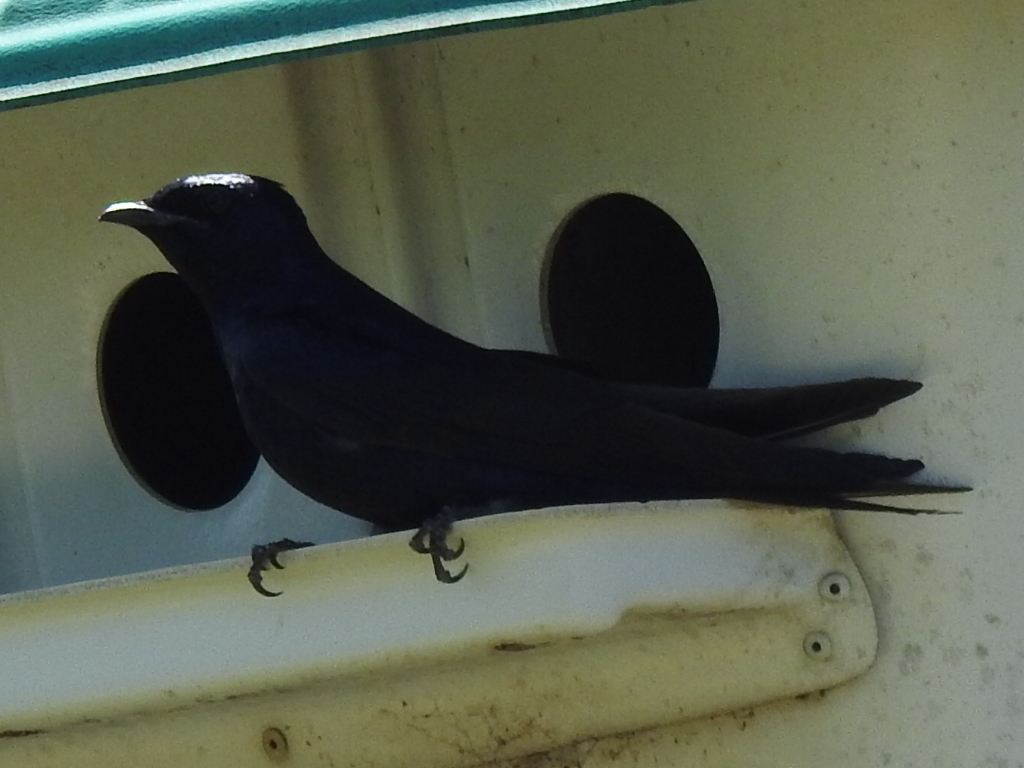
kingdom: Animalia
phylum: Chordata
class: Aves
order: Passeriformes
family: Hirundinidae
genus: Progne
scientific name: Progne subis
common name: Purple martin
